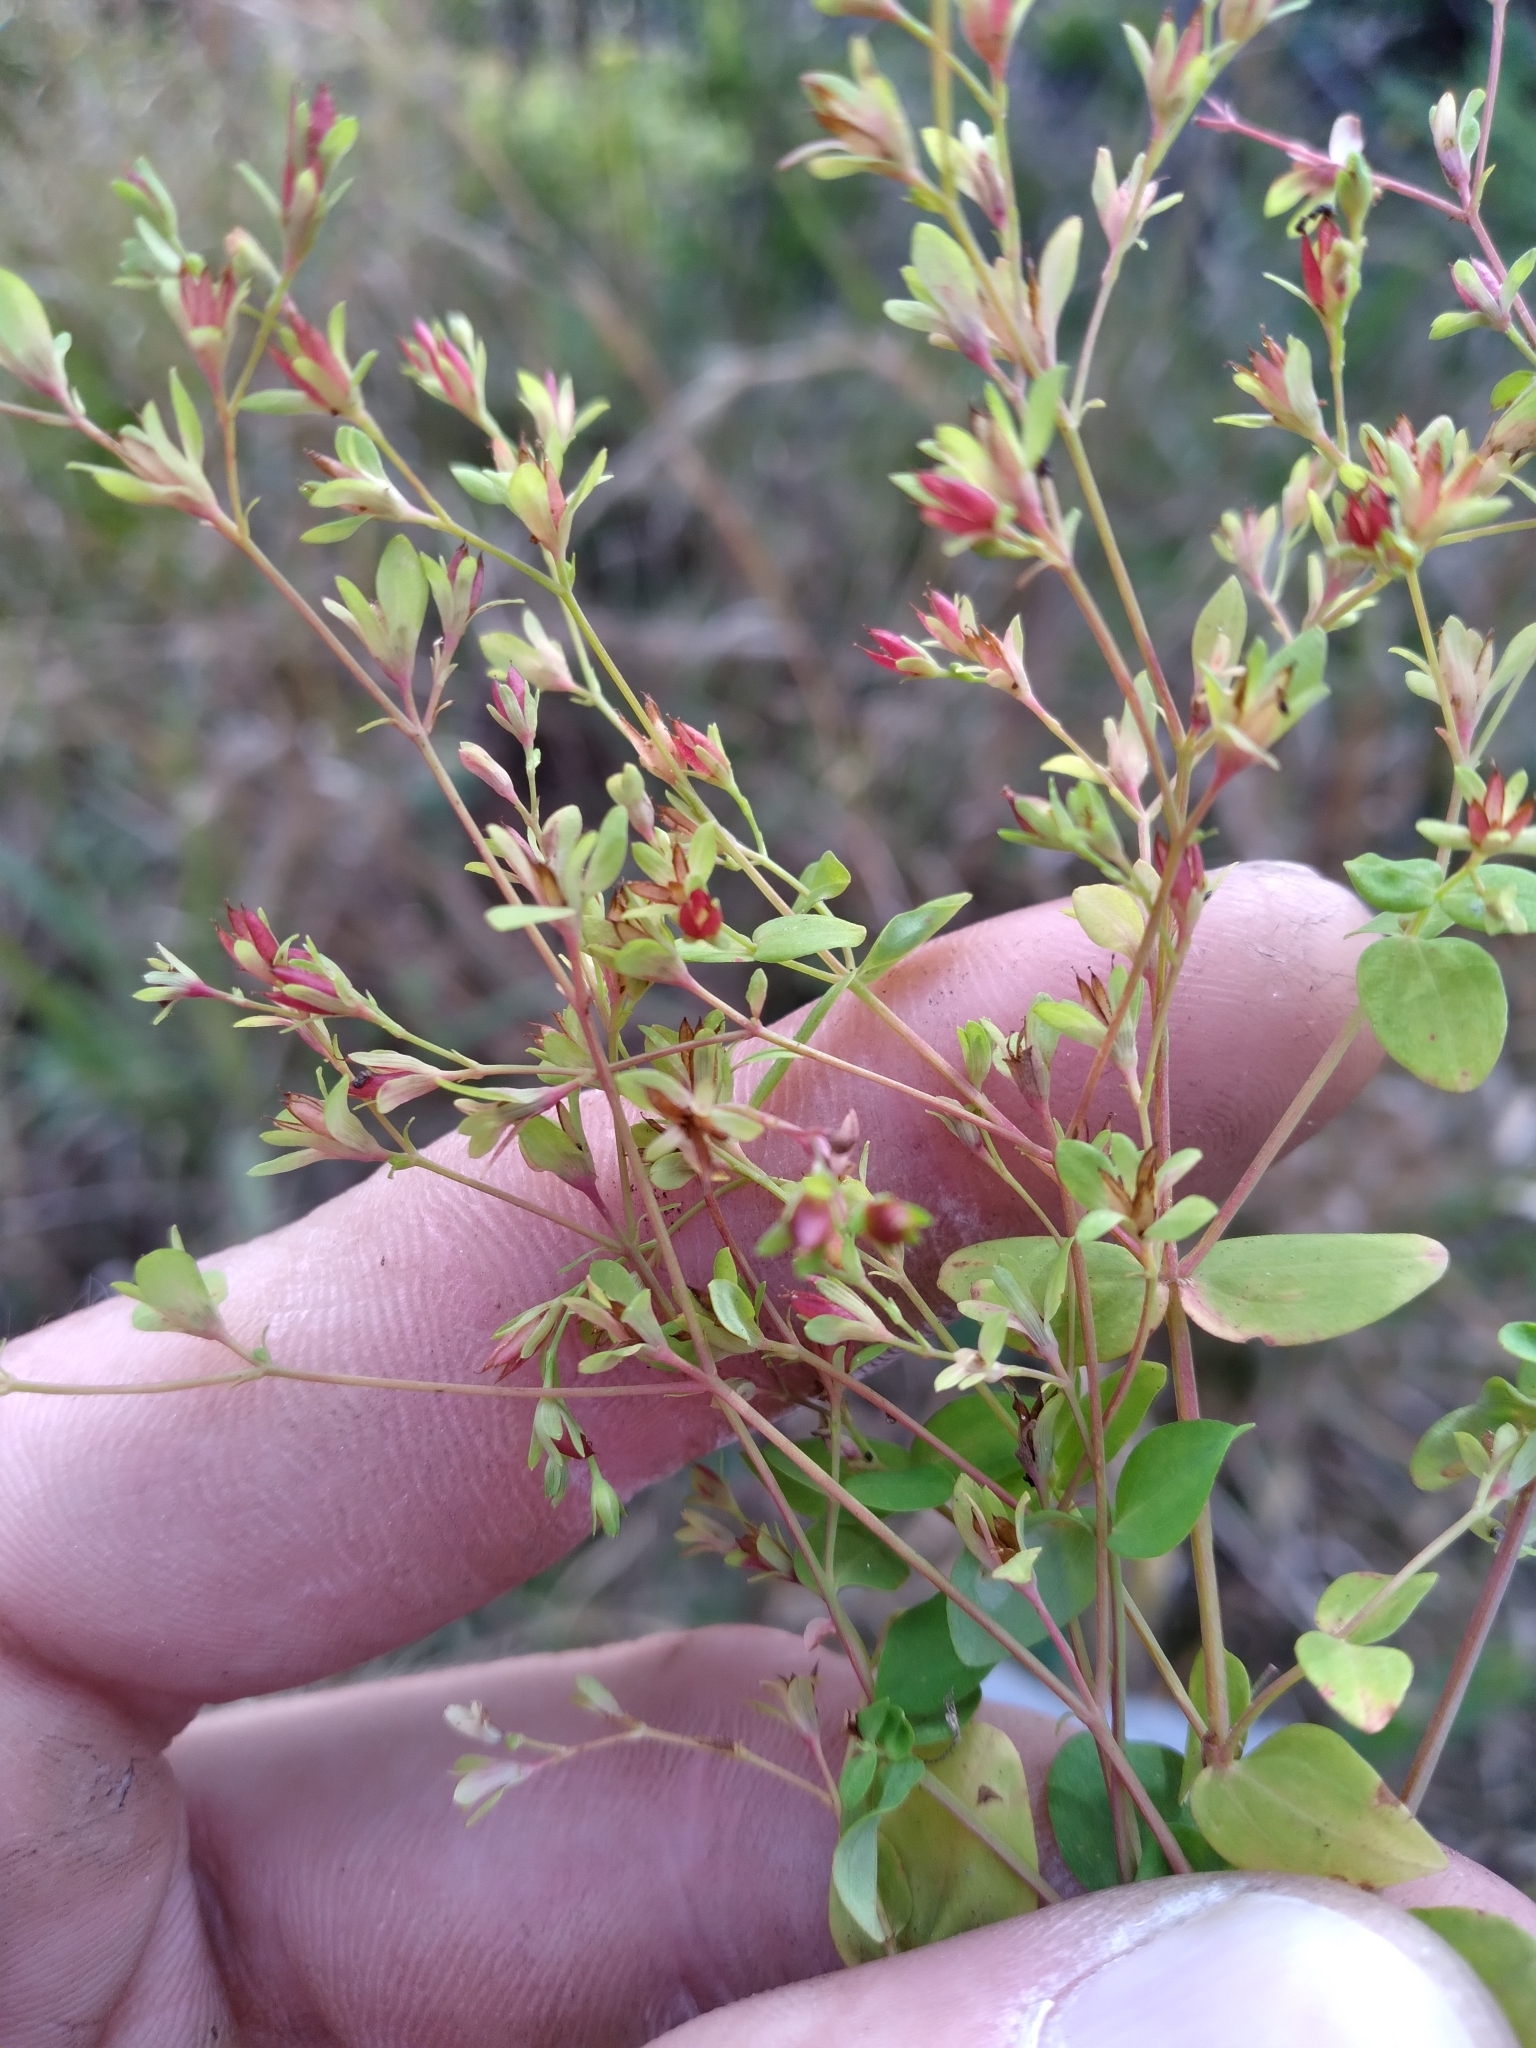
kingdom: Plantae
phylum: Tracheophyta
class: Magnoliopsida
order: Malpighiales
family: Hypericaceae
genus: Hypericum
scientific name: Hypericum mutilum
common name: Dwarf st. john's-wort
